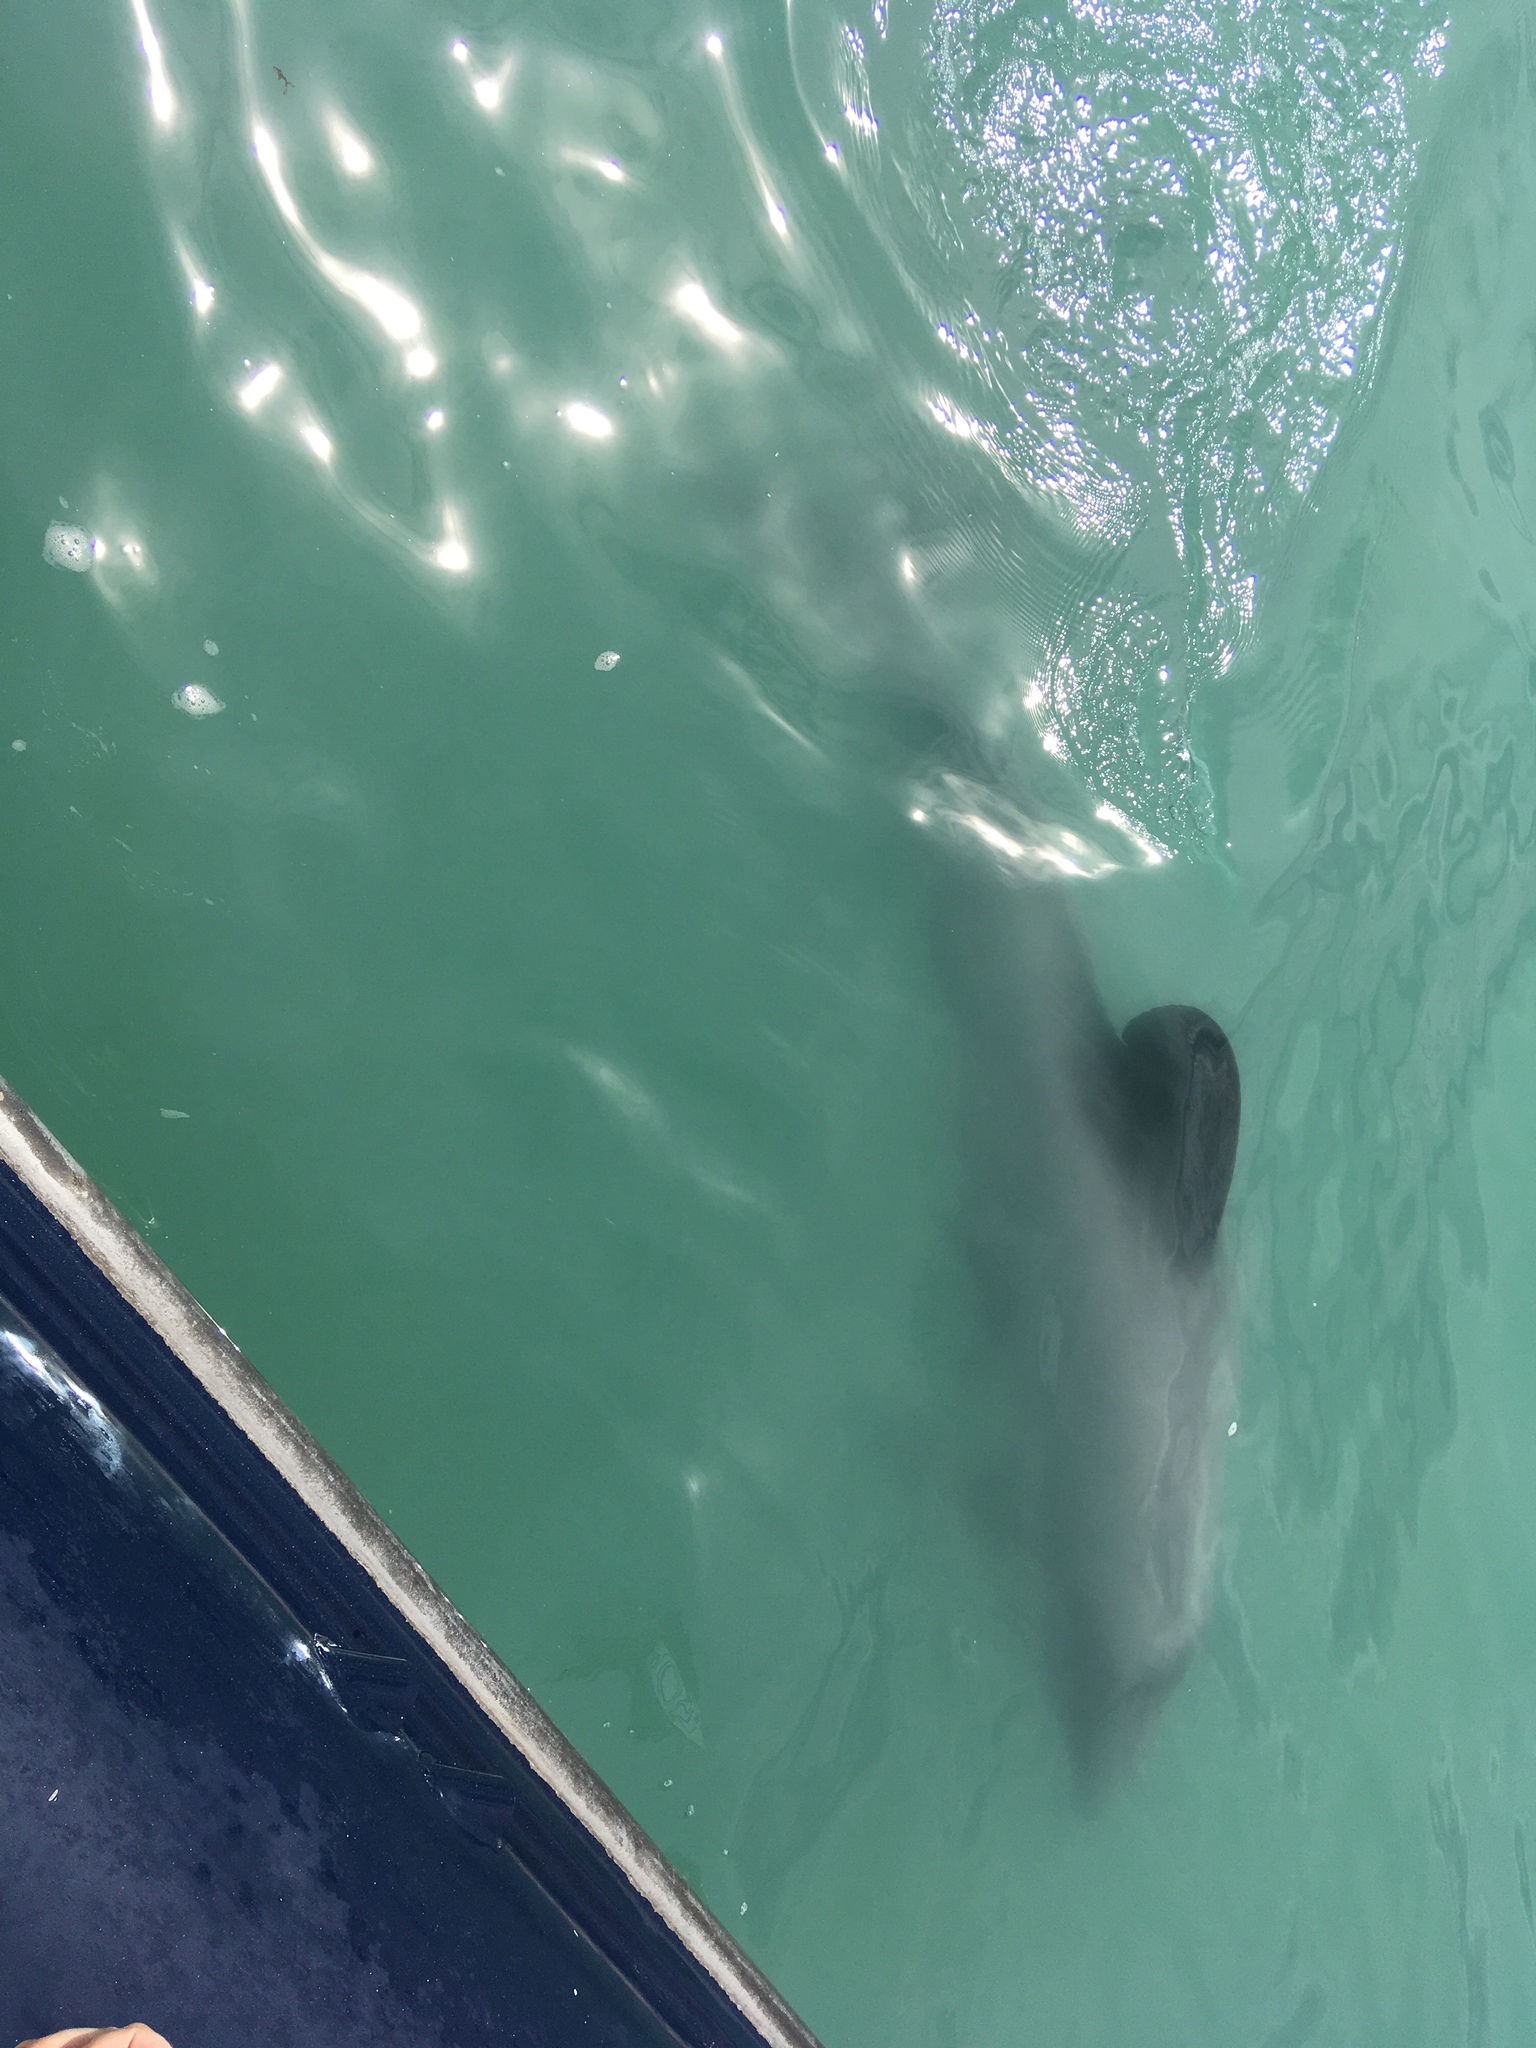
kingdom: Animalia
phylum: Chordata
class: Mammalia
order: Cetacea
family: Delphinidae
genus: Cephalorhynchus
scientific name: Cephalorhynchus hectori
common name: Hector's dolphin
